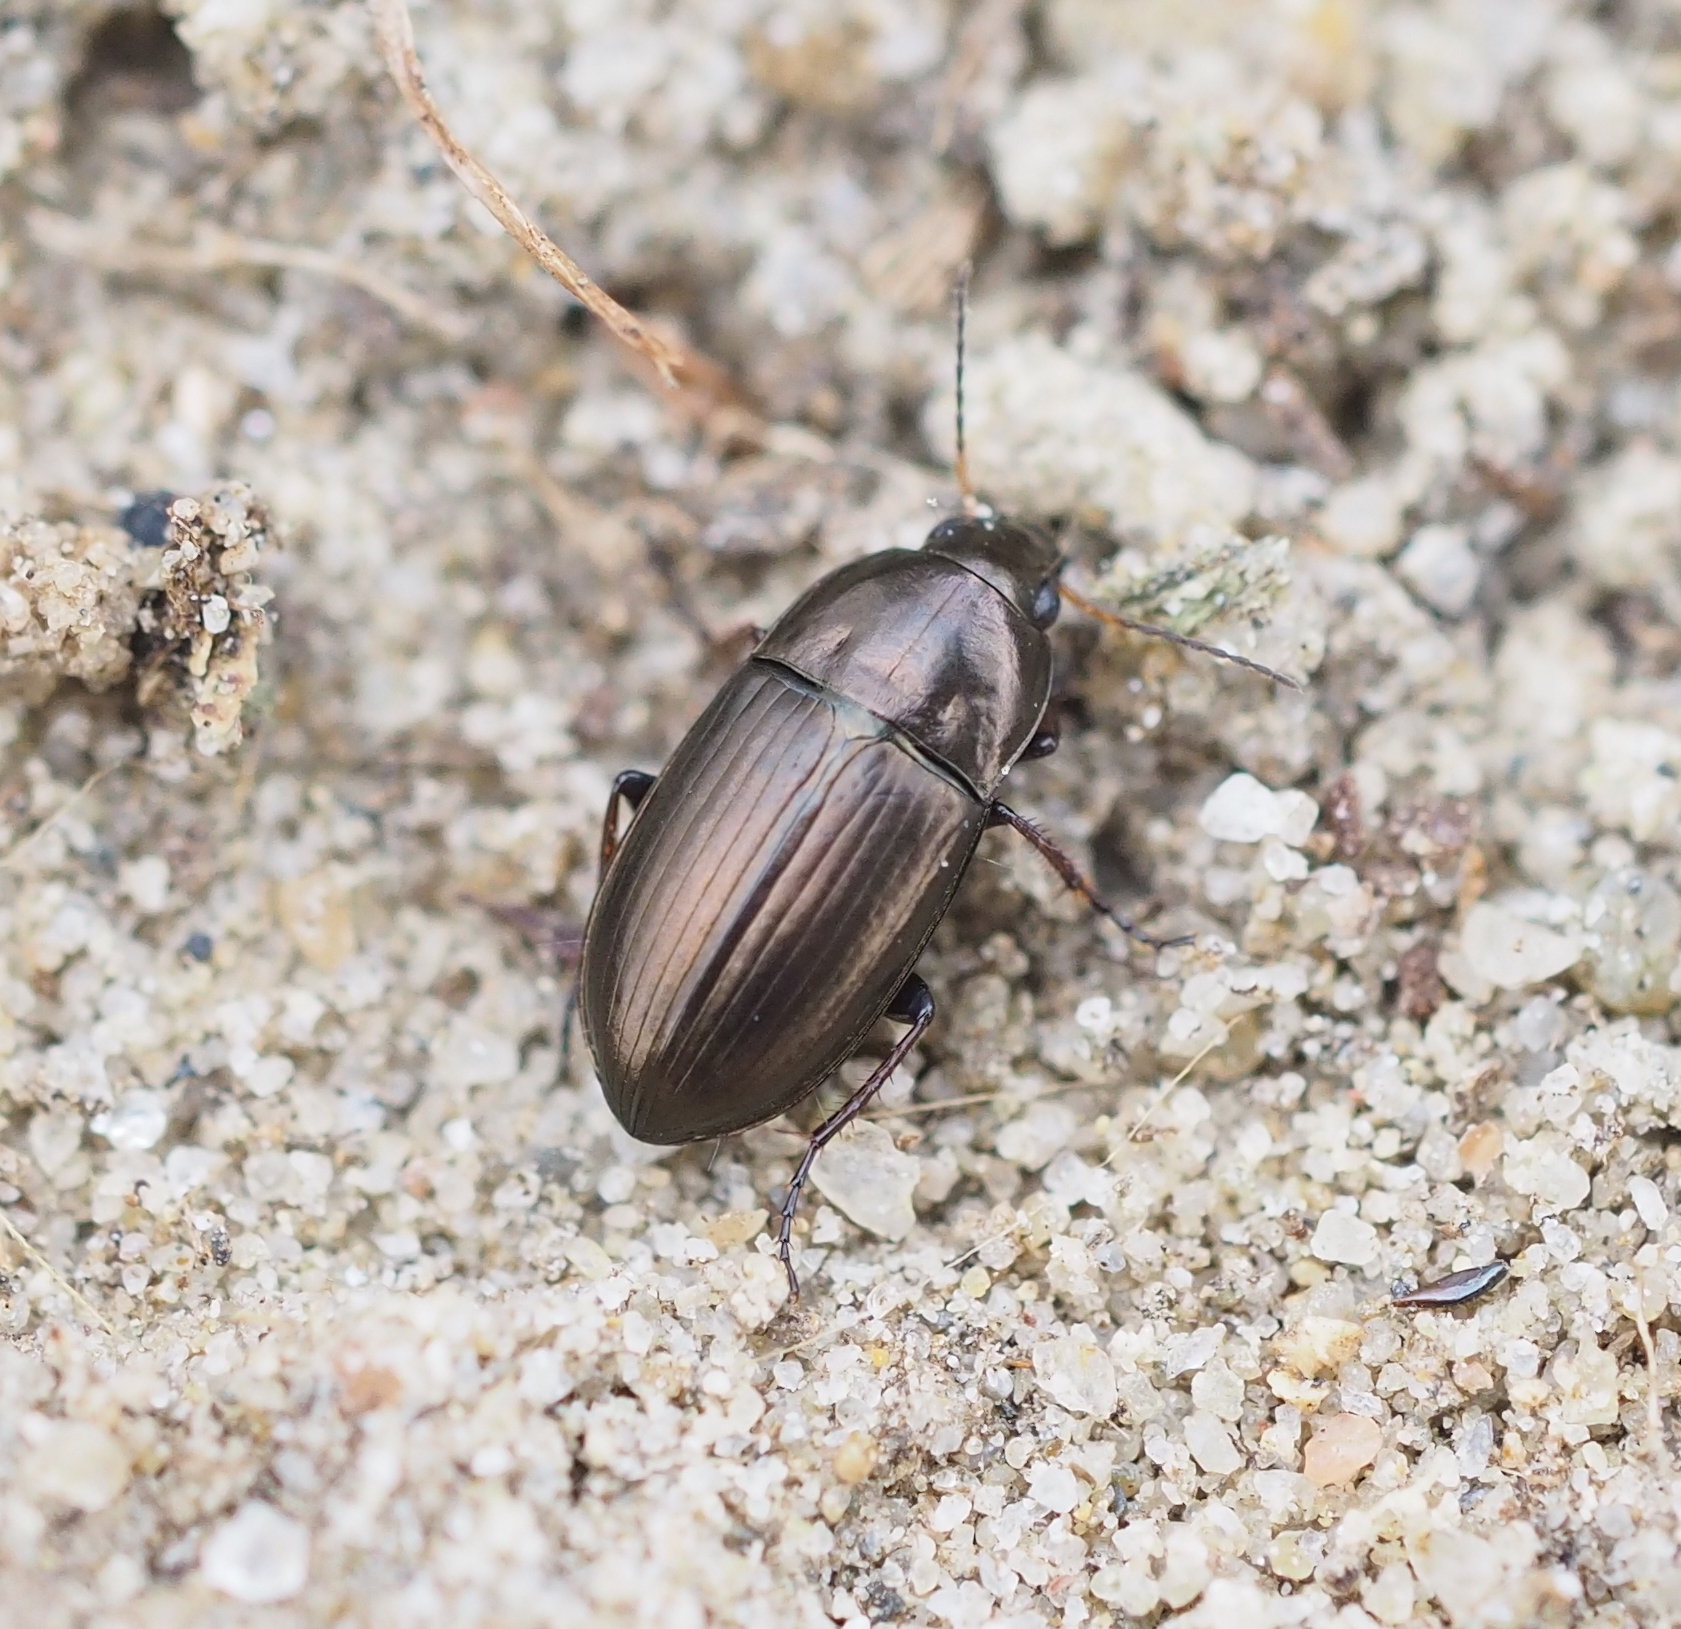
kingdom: Animalia
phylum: Arthropoda
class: Insecta
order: Coleoptera
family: Carabidae
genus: Amara
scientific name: Amara aenea
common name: Common sun beetle
